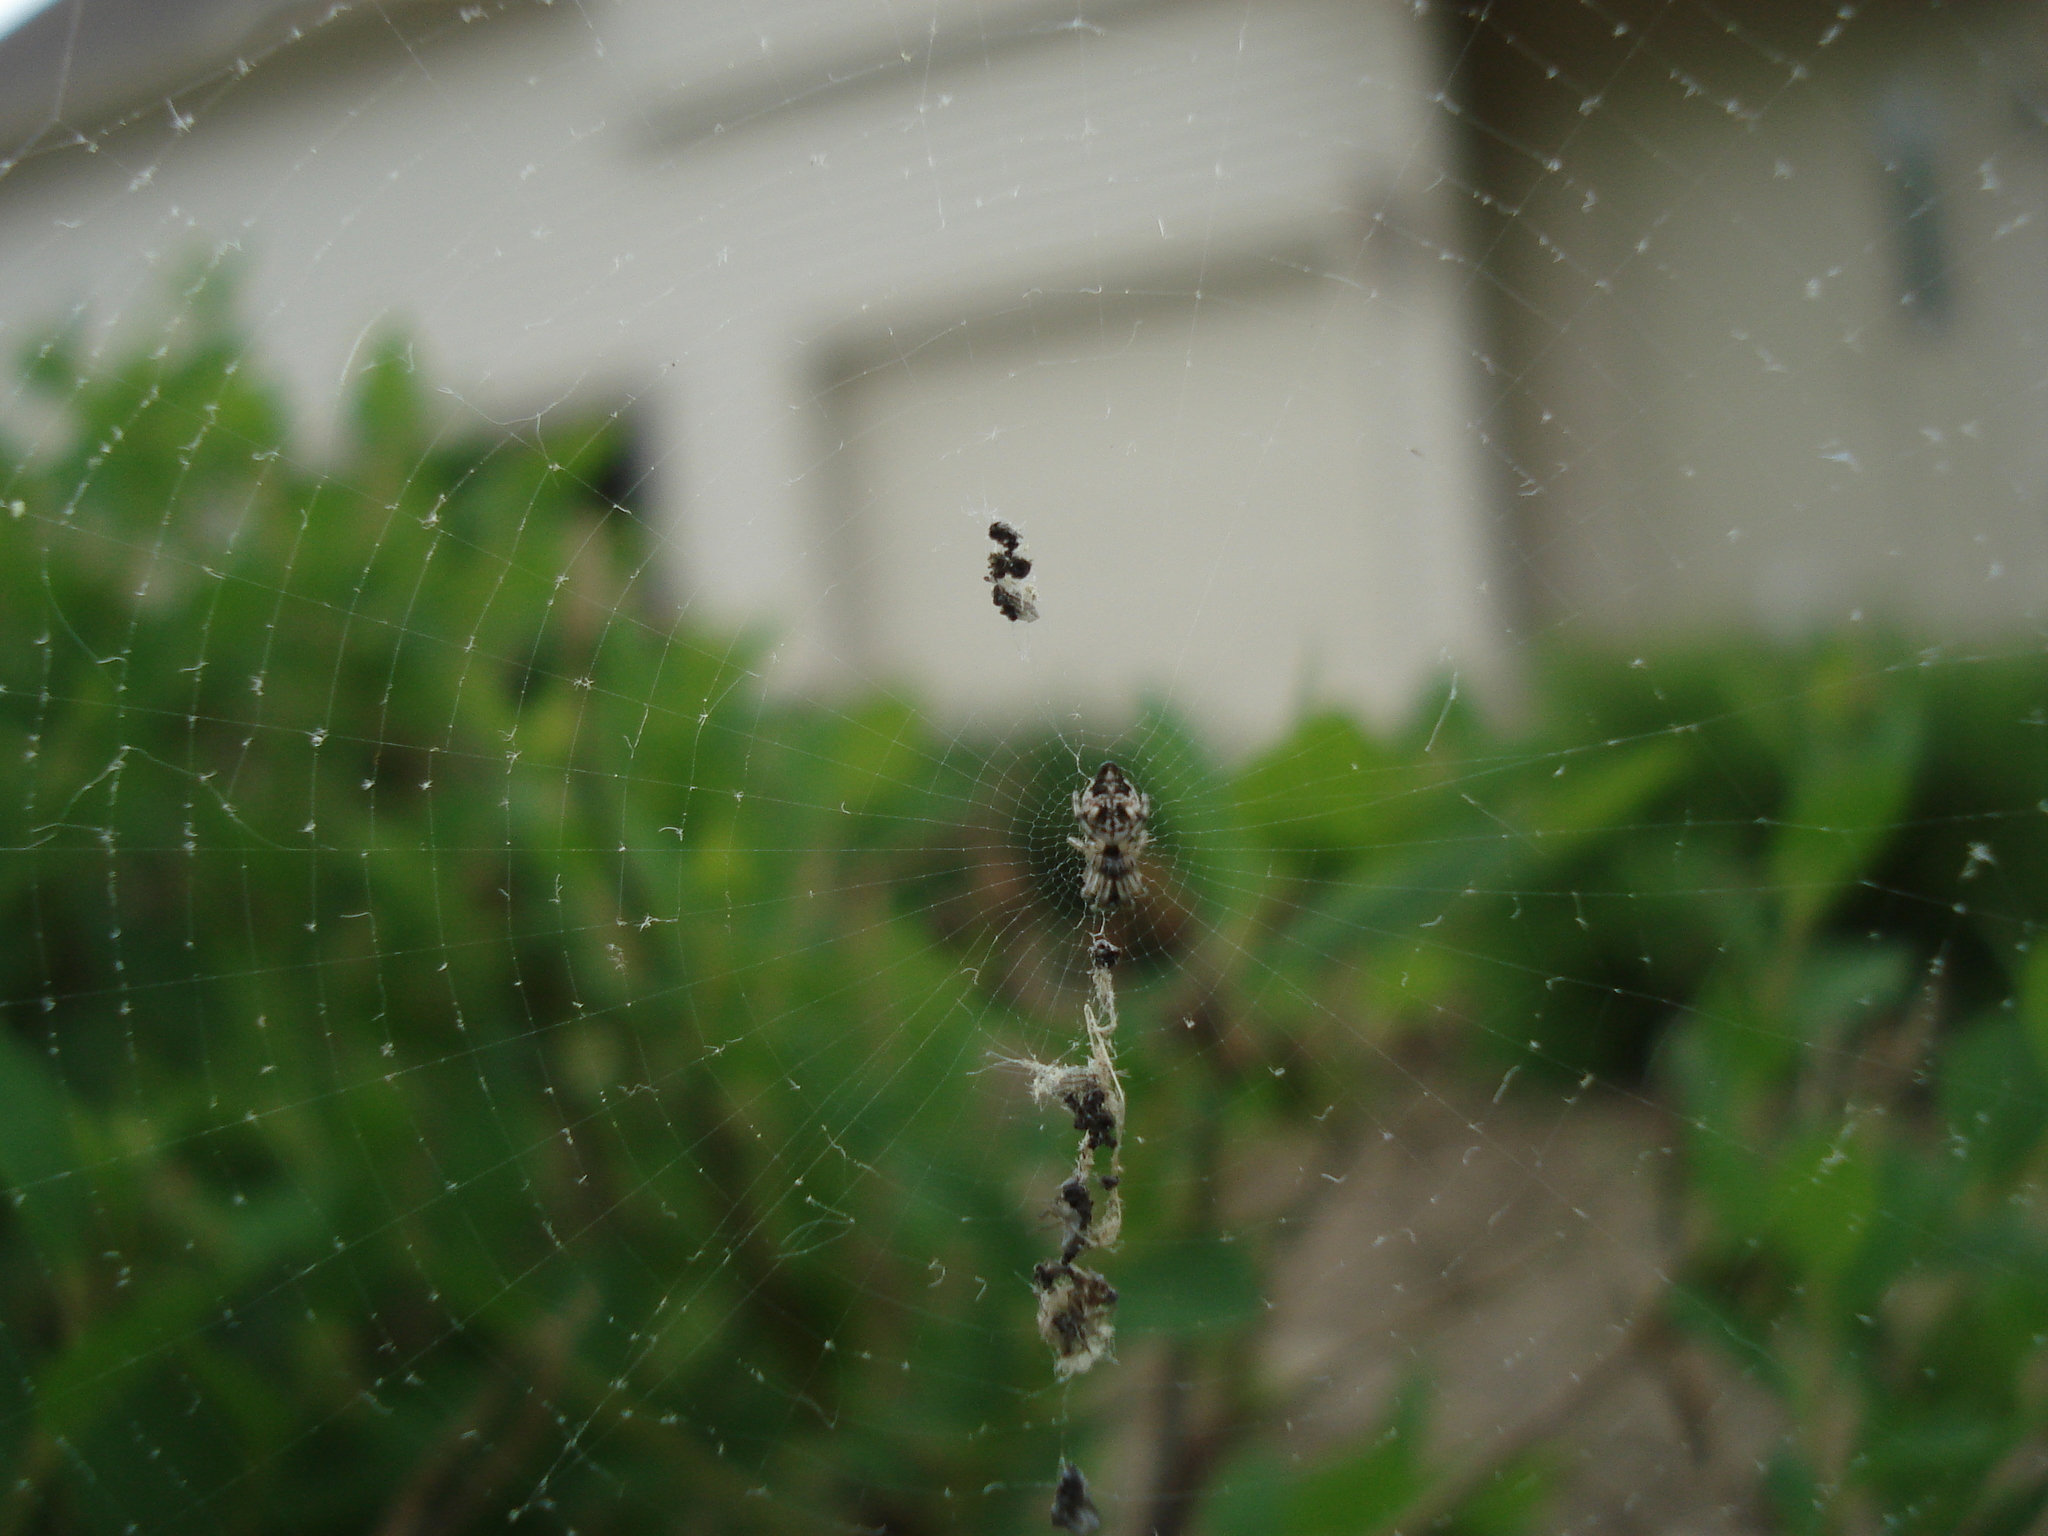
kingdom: Animalia
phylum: Arthropoda
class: Arachnida
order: Araneae
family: Araneidae
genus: Cyclosa
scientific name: Cyclosa turbinata
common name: Orb weavers
